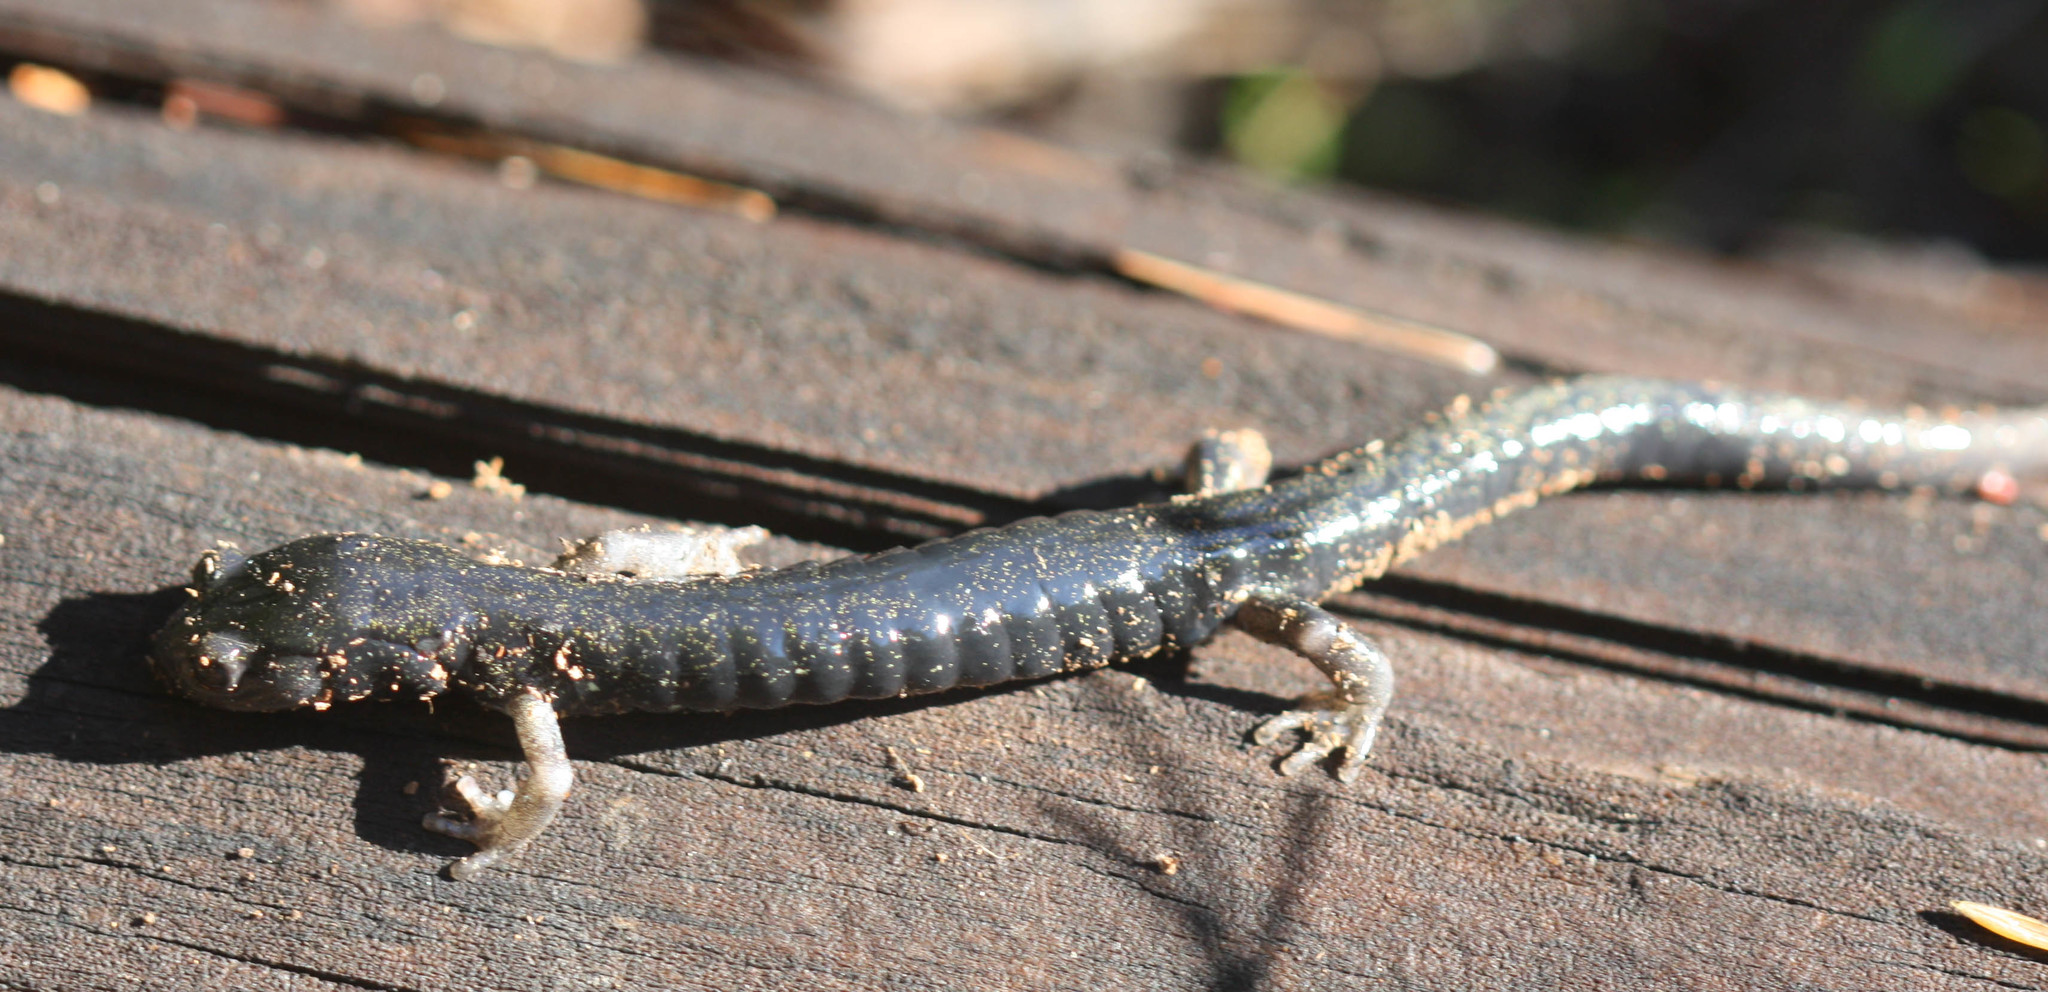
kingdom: Animalia
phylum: Chordata
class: Amphibia
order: Caudata
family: Plethodontidae
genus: Aneides
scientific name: Aneides flavipunctatus
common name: Black salamander
